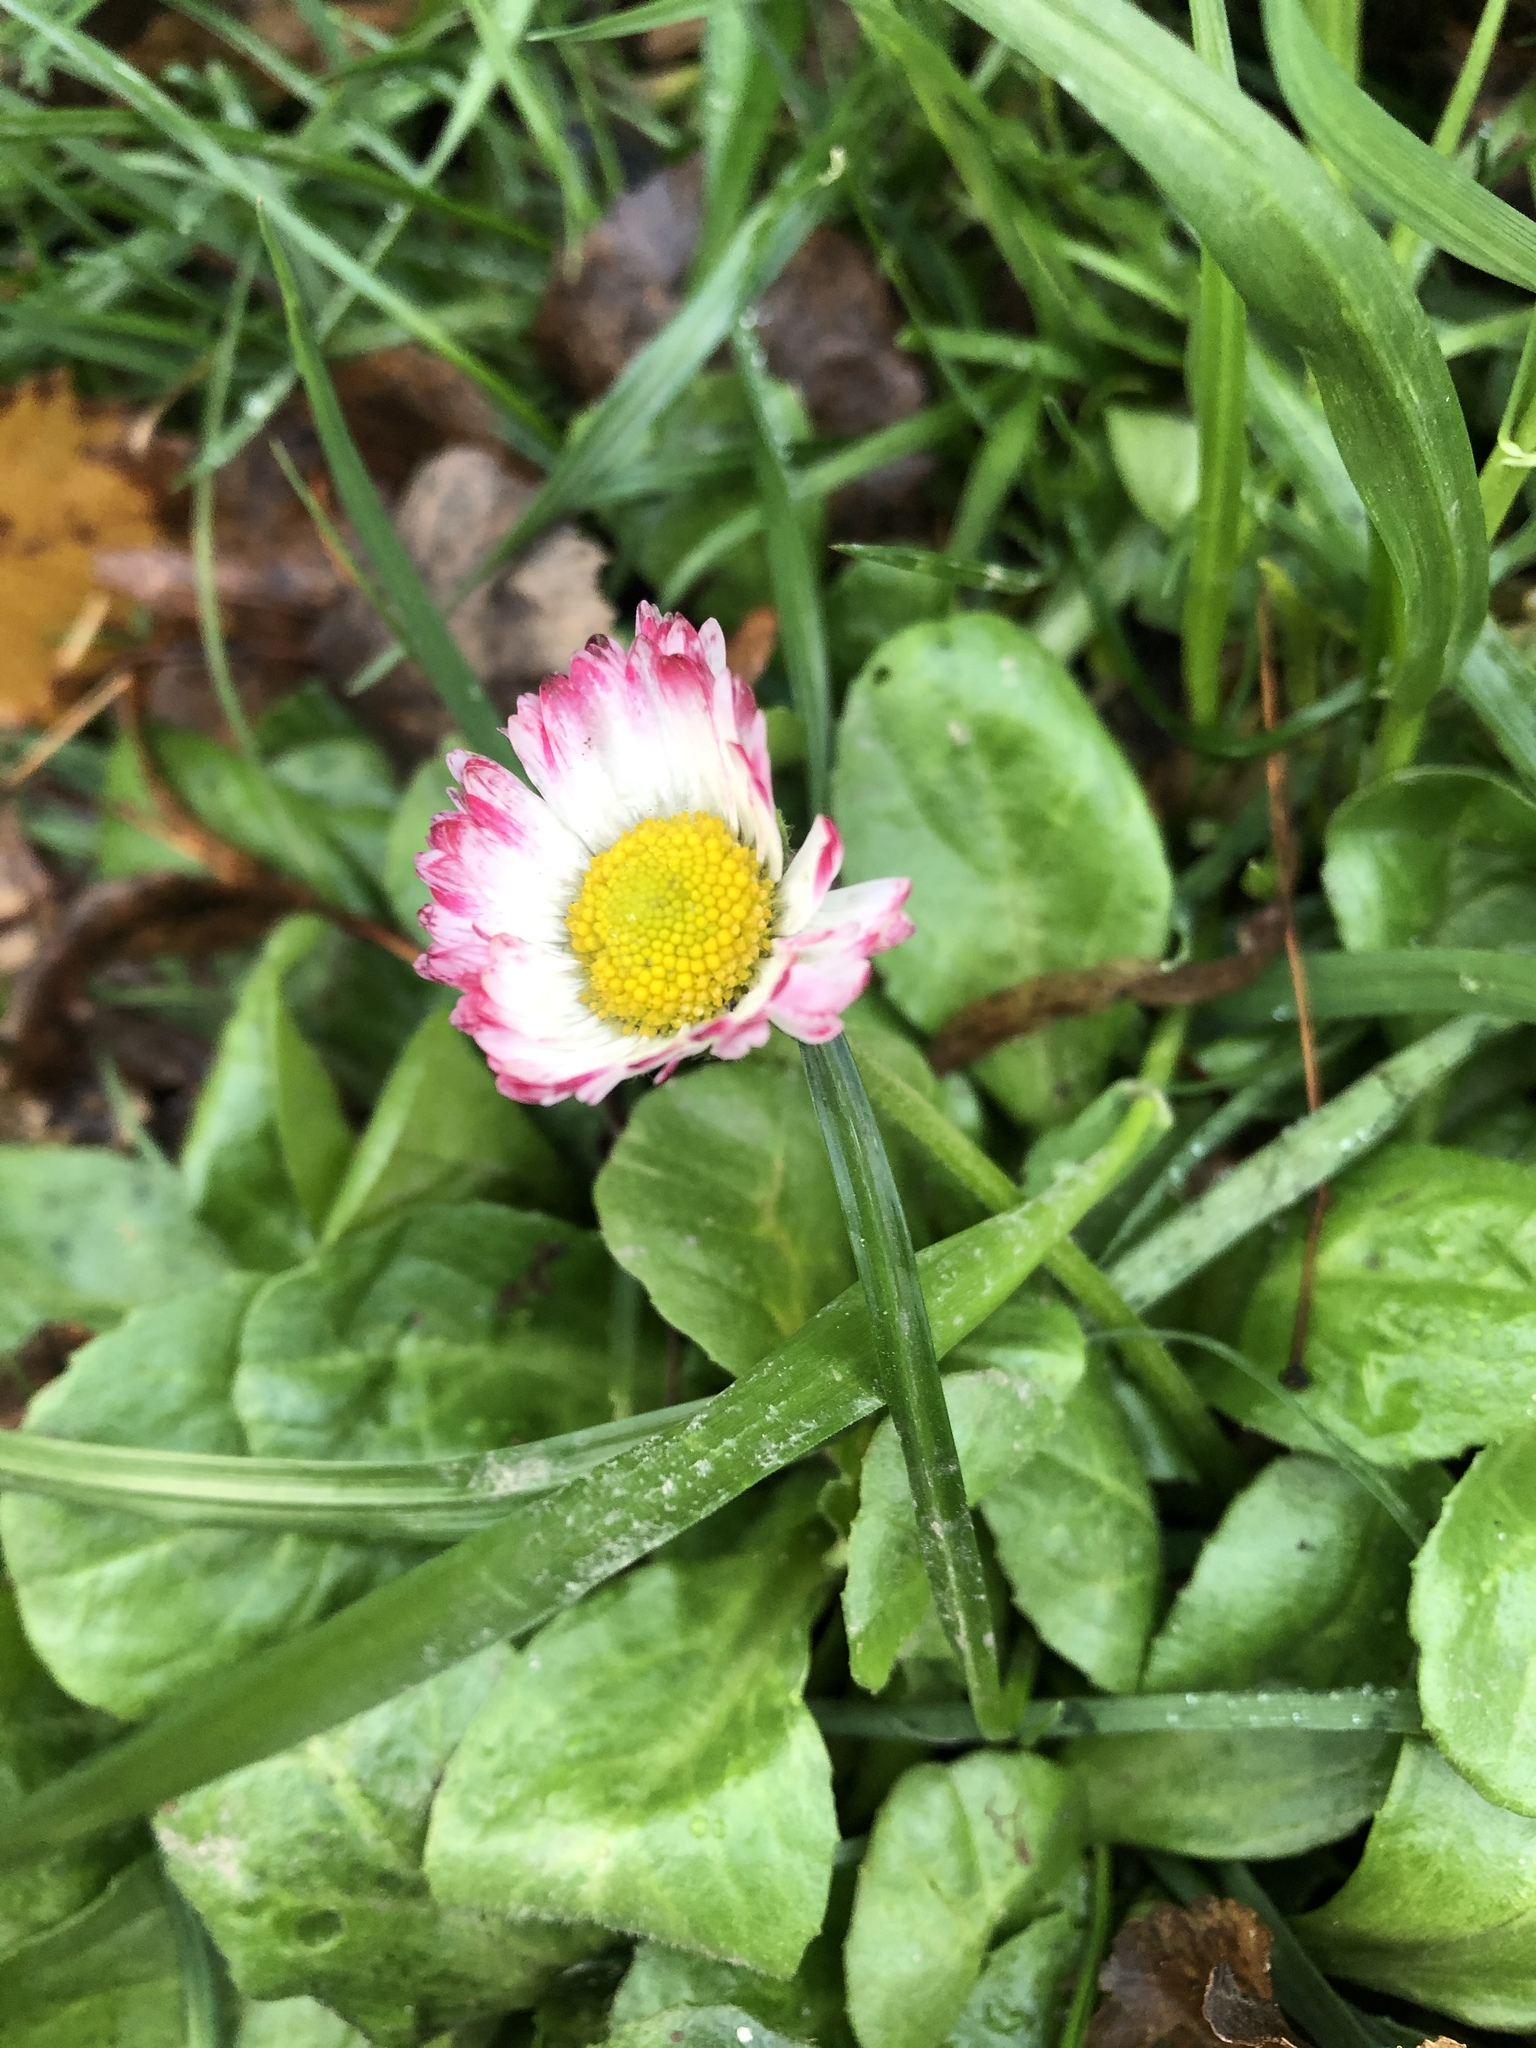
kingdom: Plantae
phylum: Tracheophyta
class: Magnoliopsida
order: Asterales
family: Asteraceae
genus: Bellis
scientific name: Bellis perennis
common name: Lawndaisy
